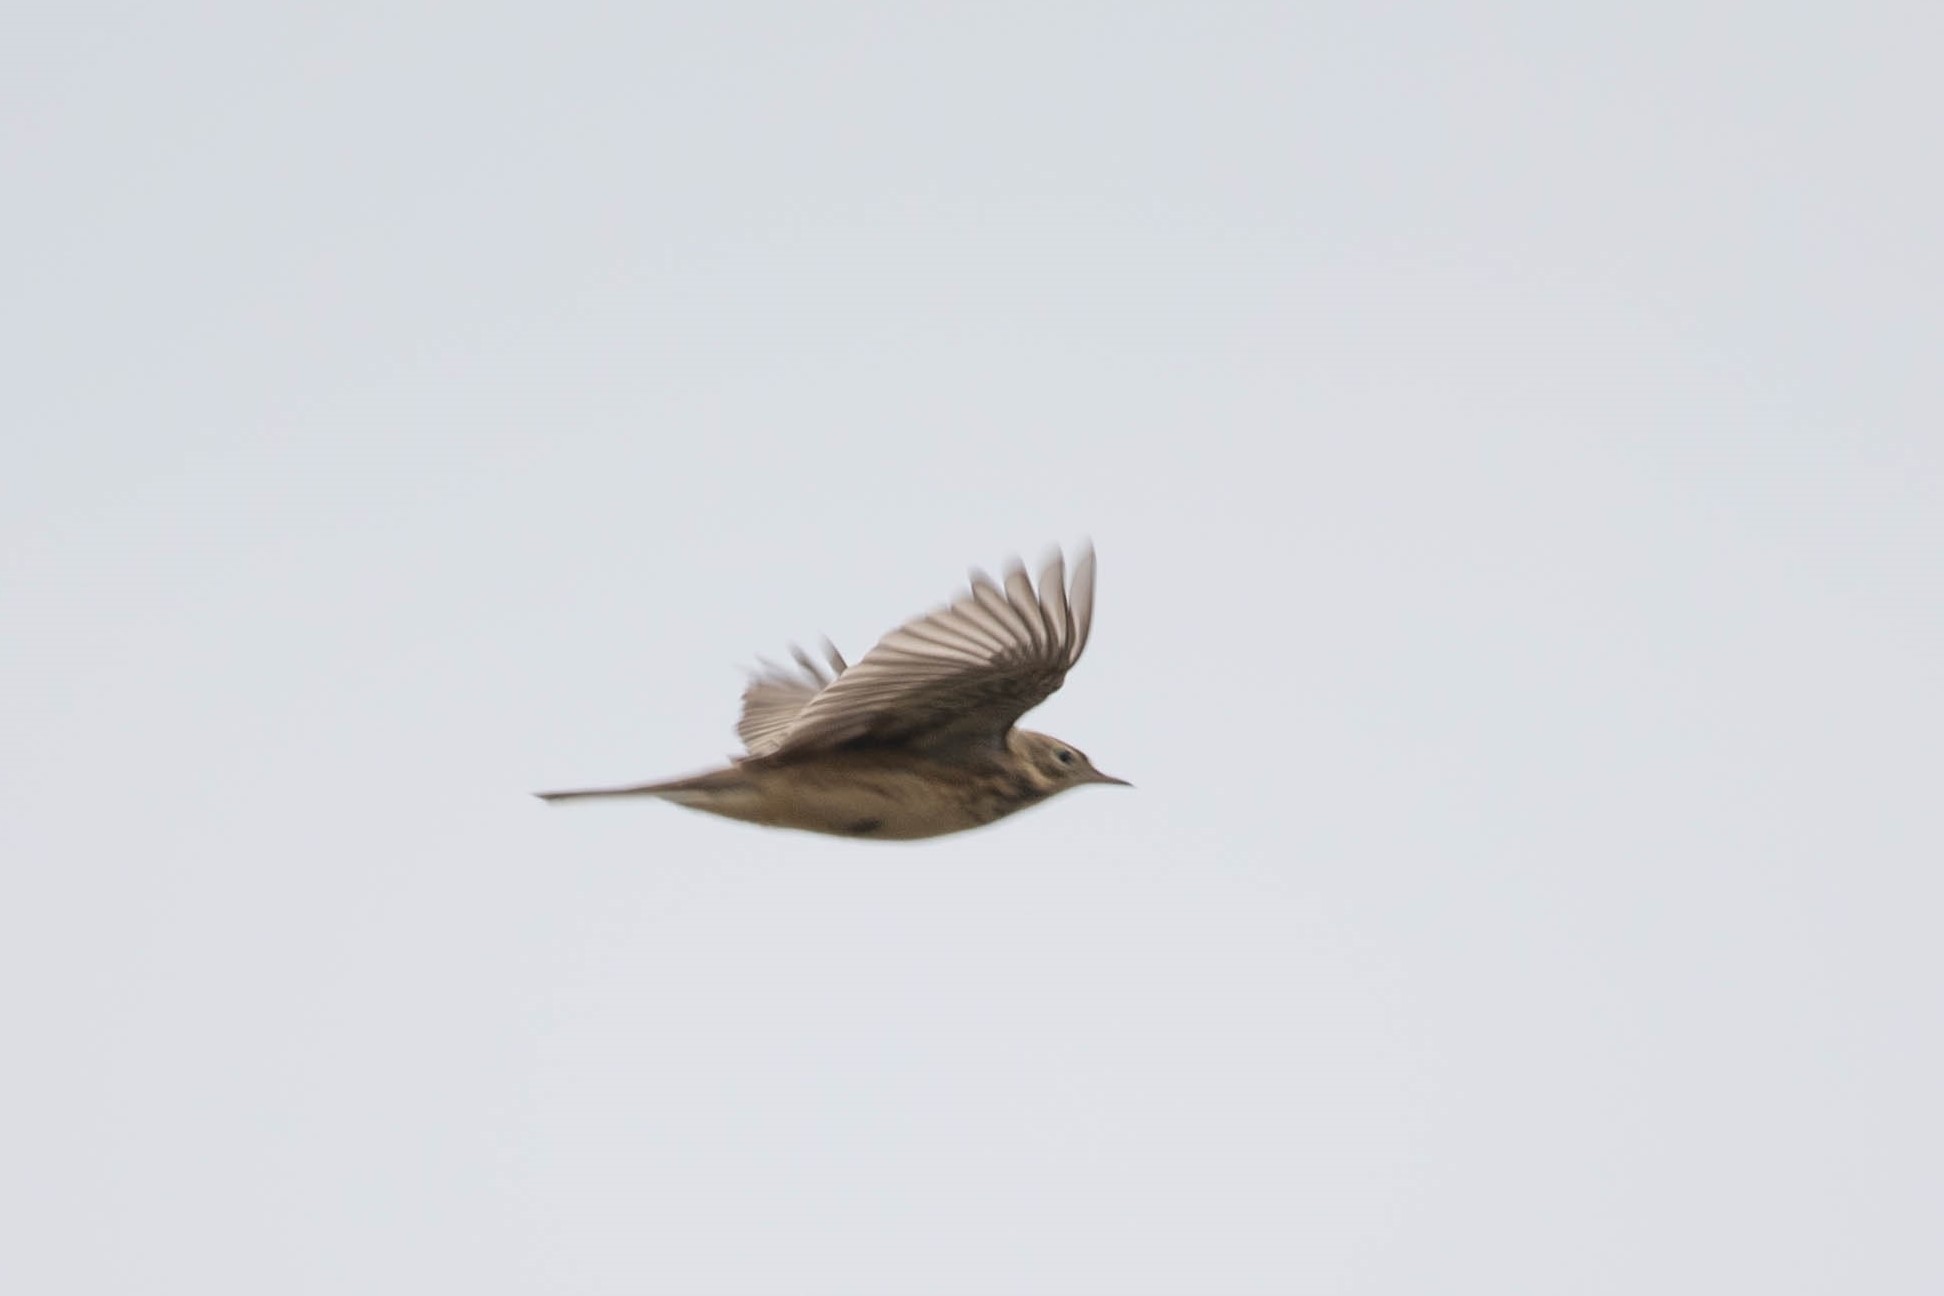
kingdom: Animalia
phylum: Chordata
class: Aves
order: Passeriformes
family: Motacillidae
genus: Anthus
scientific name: Anthus rubescens
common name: Buff-bellied pipit
